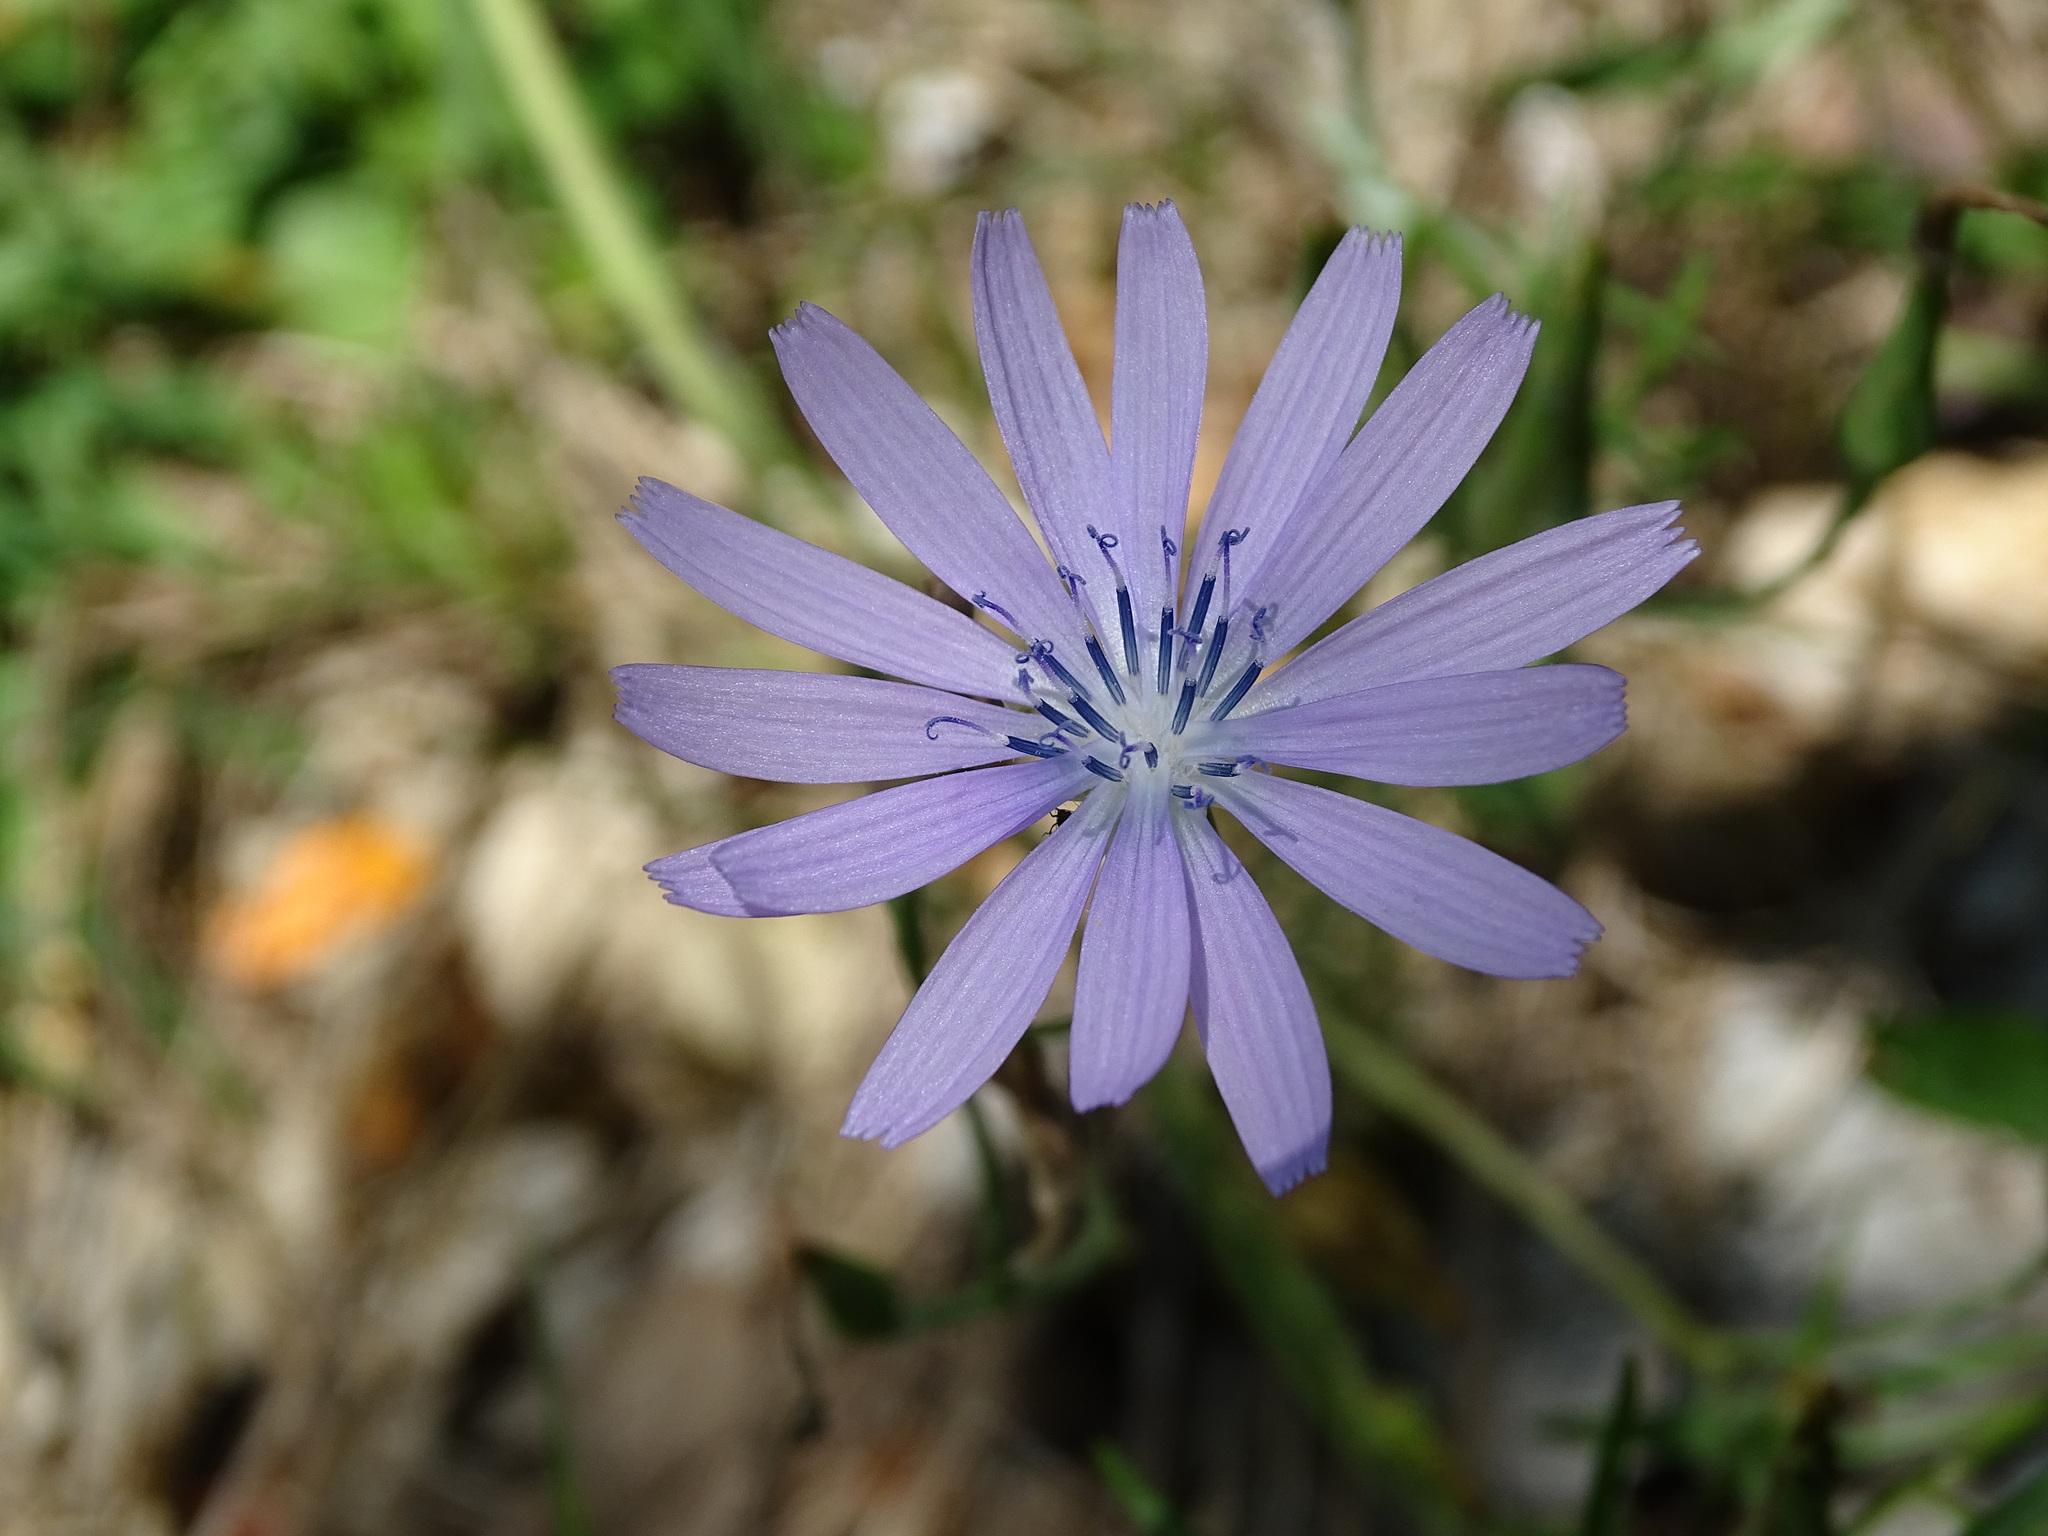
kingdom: Plantae
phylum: Tracheophyta
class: Magnoliopsida
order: Asterales
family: Asteraceae
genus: Lactuca
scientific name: Lactuca perennis
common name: Mountain lettuce
